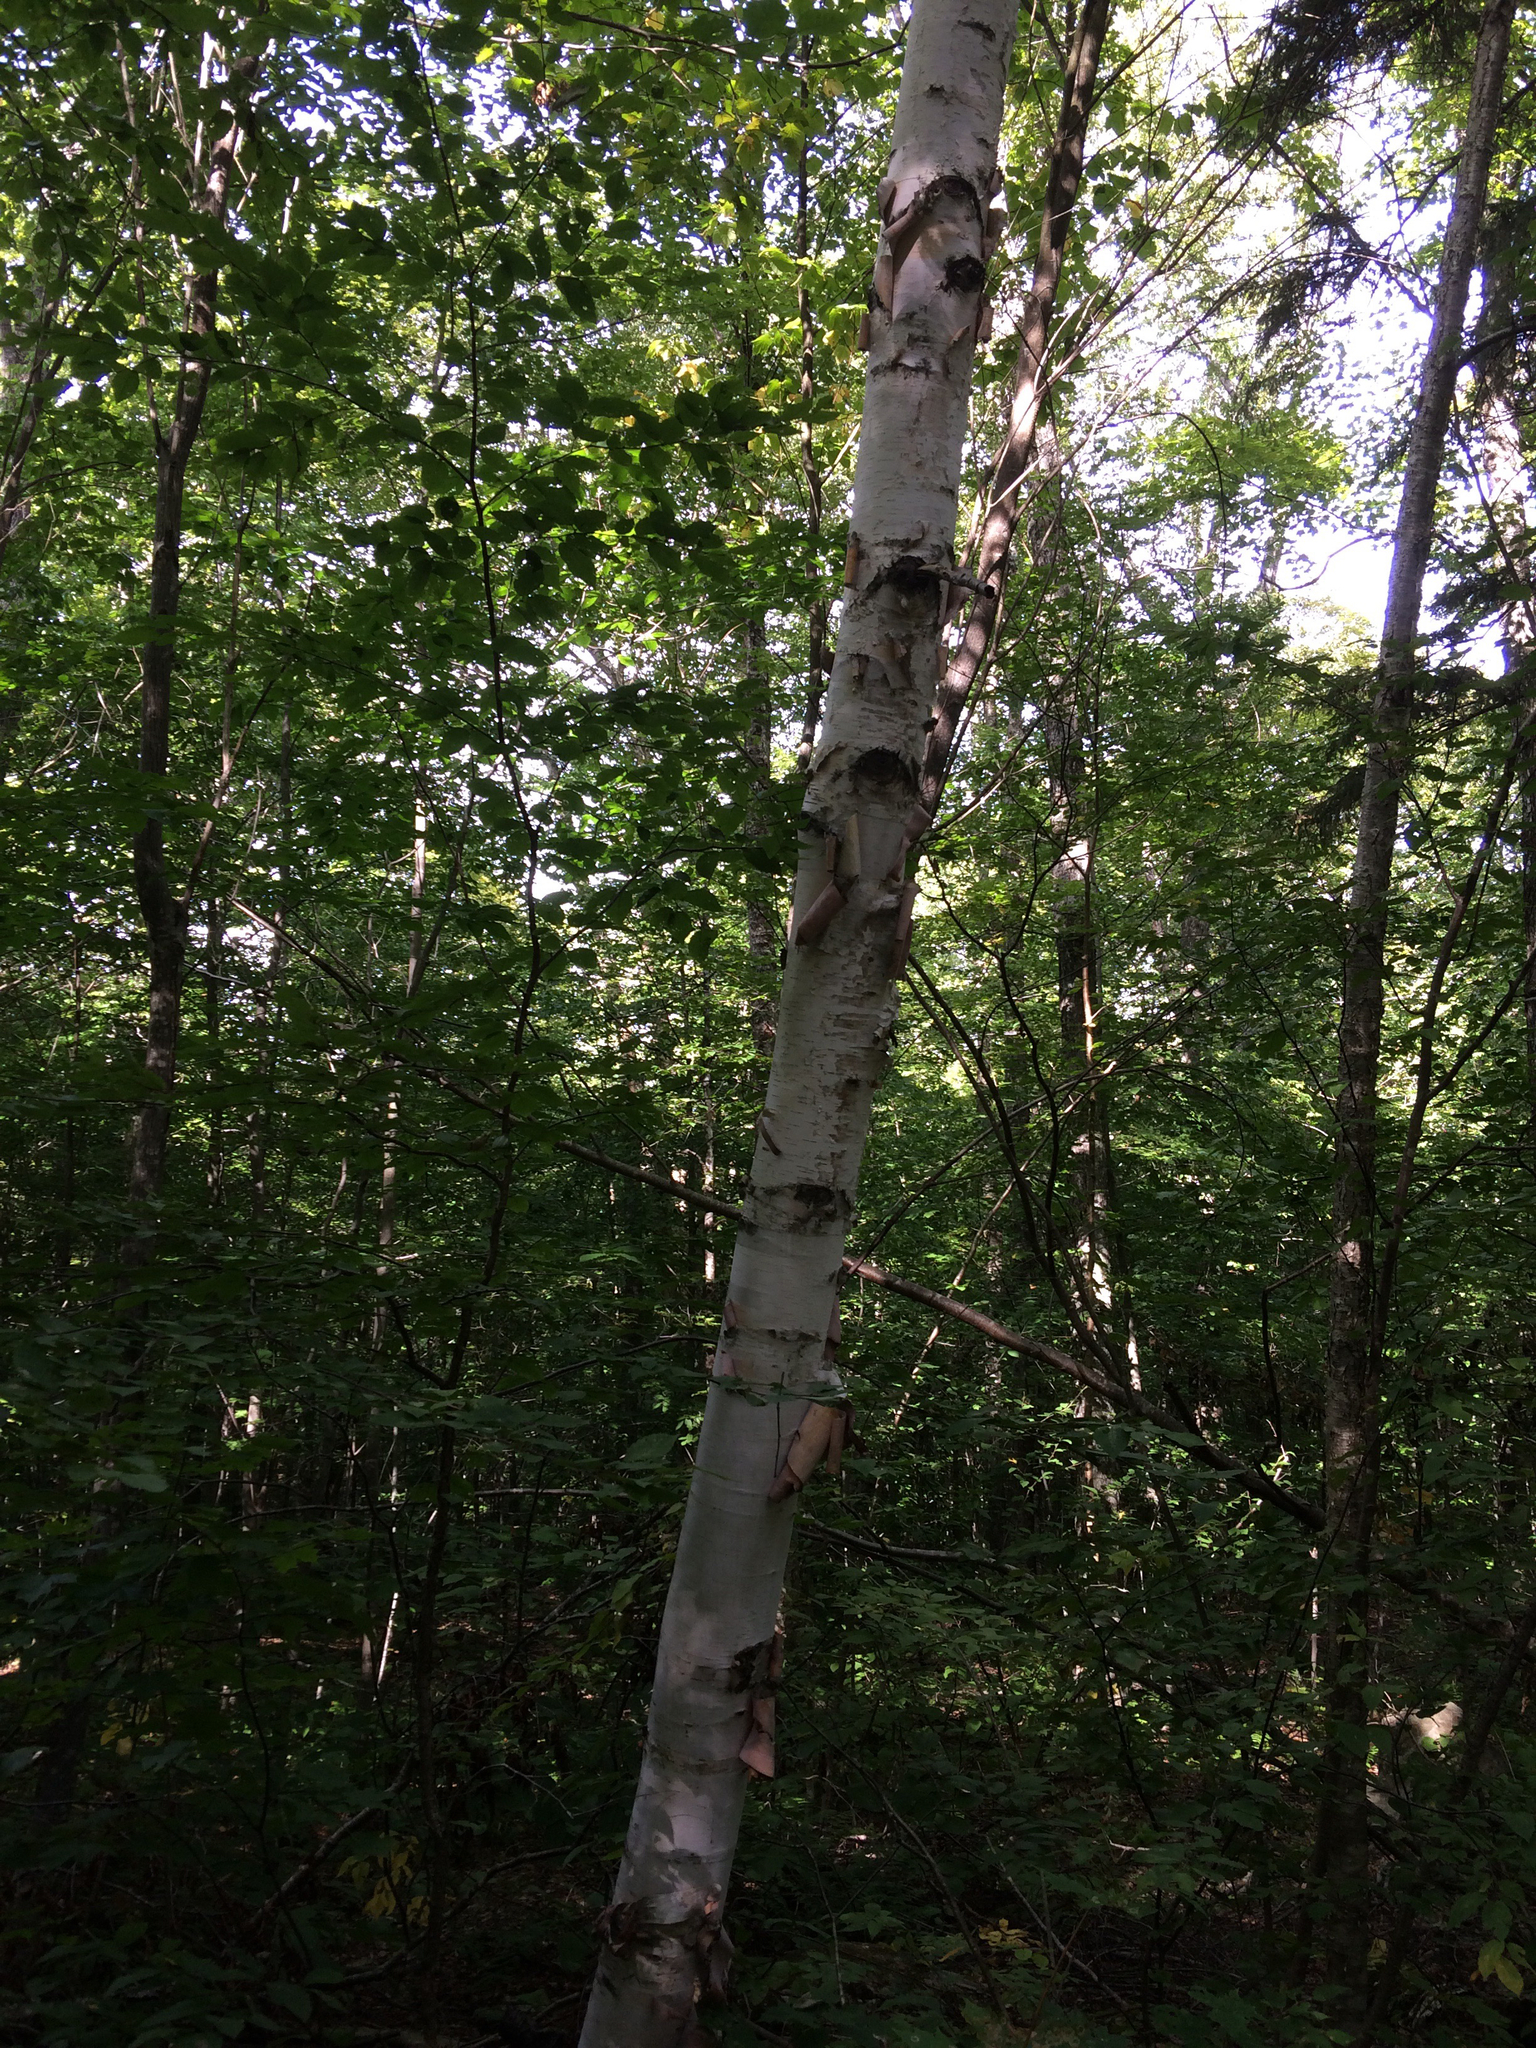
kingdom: Plantae
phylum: Tracheophyta
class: Magnoliopsida
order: Fagales
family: Betulaceae
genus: Betula
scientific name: Betula papyrifera
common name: Paper birch
